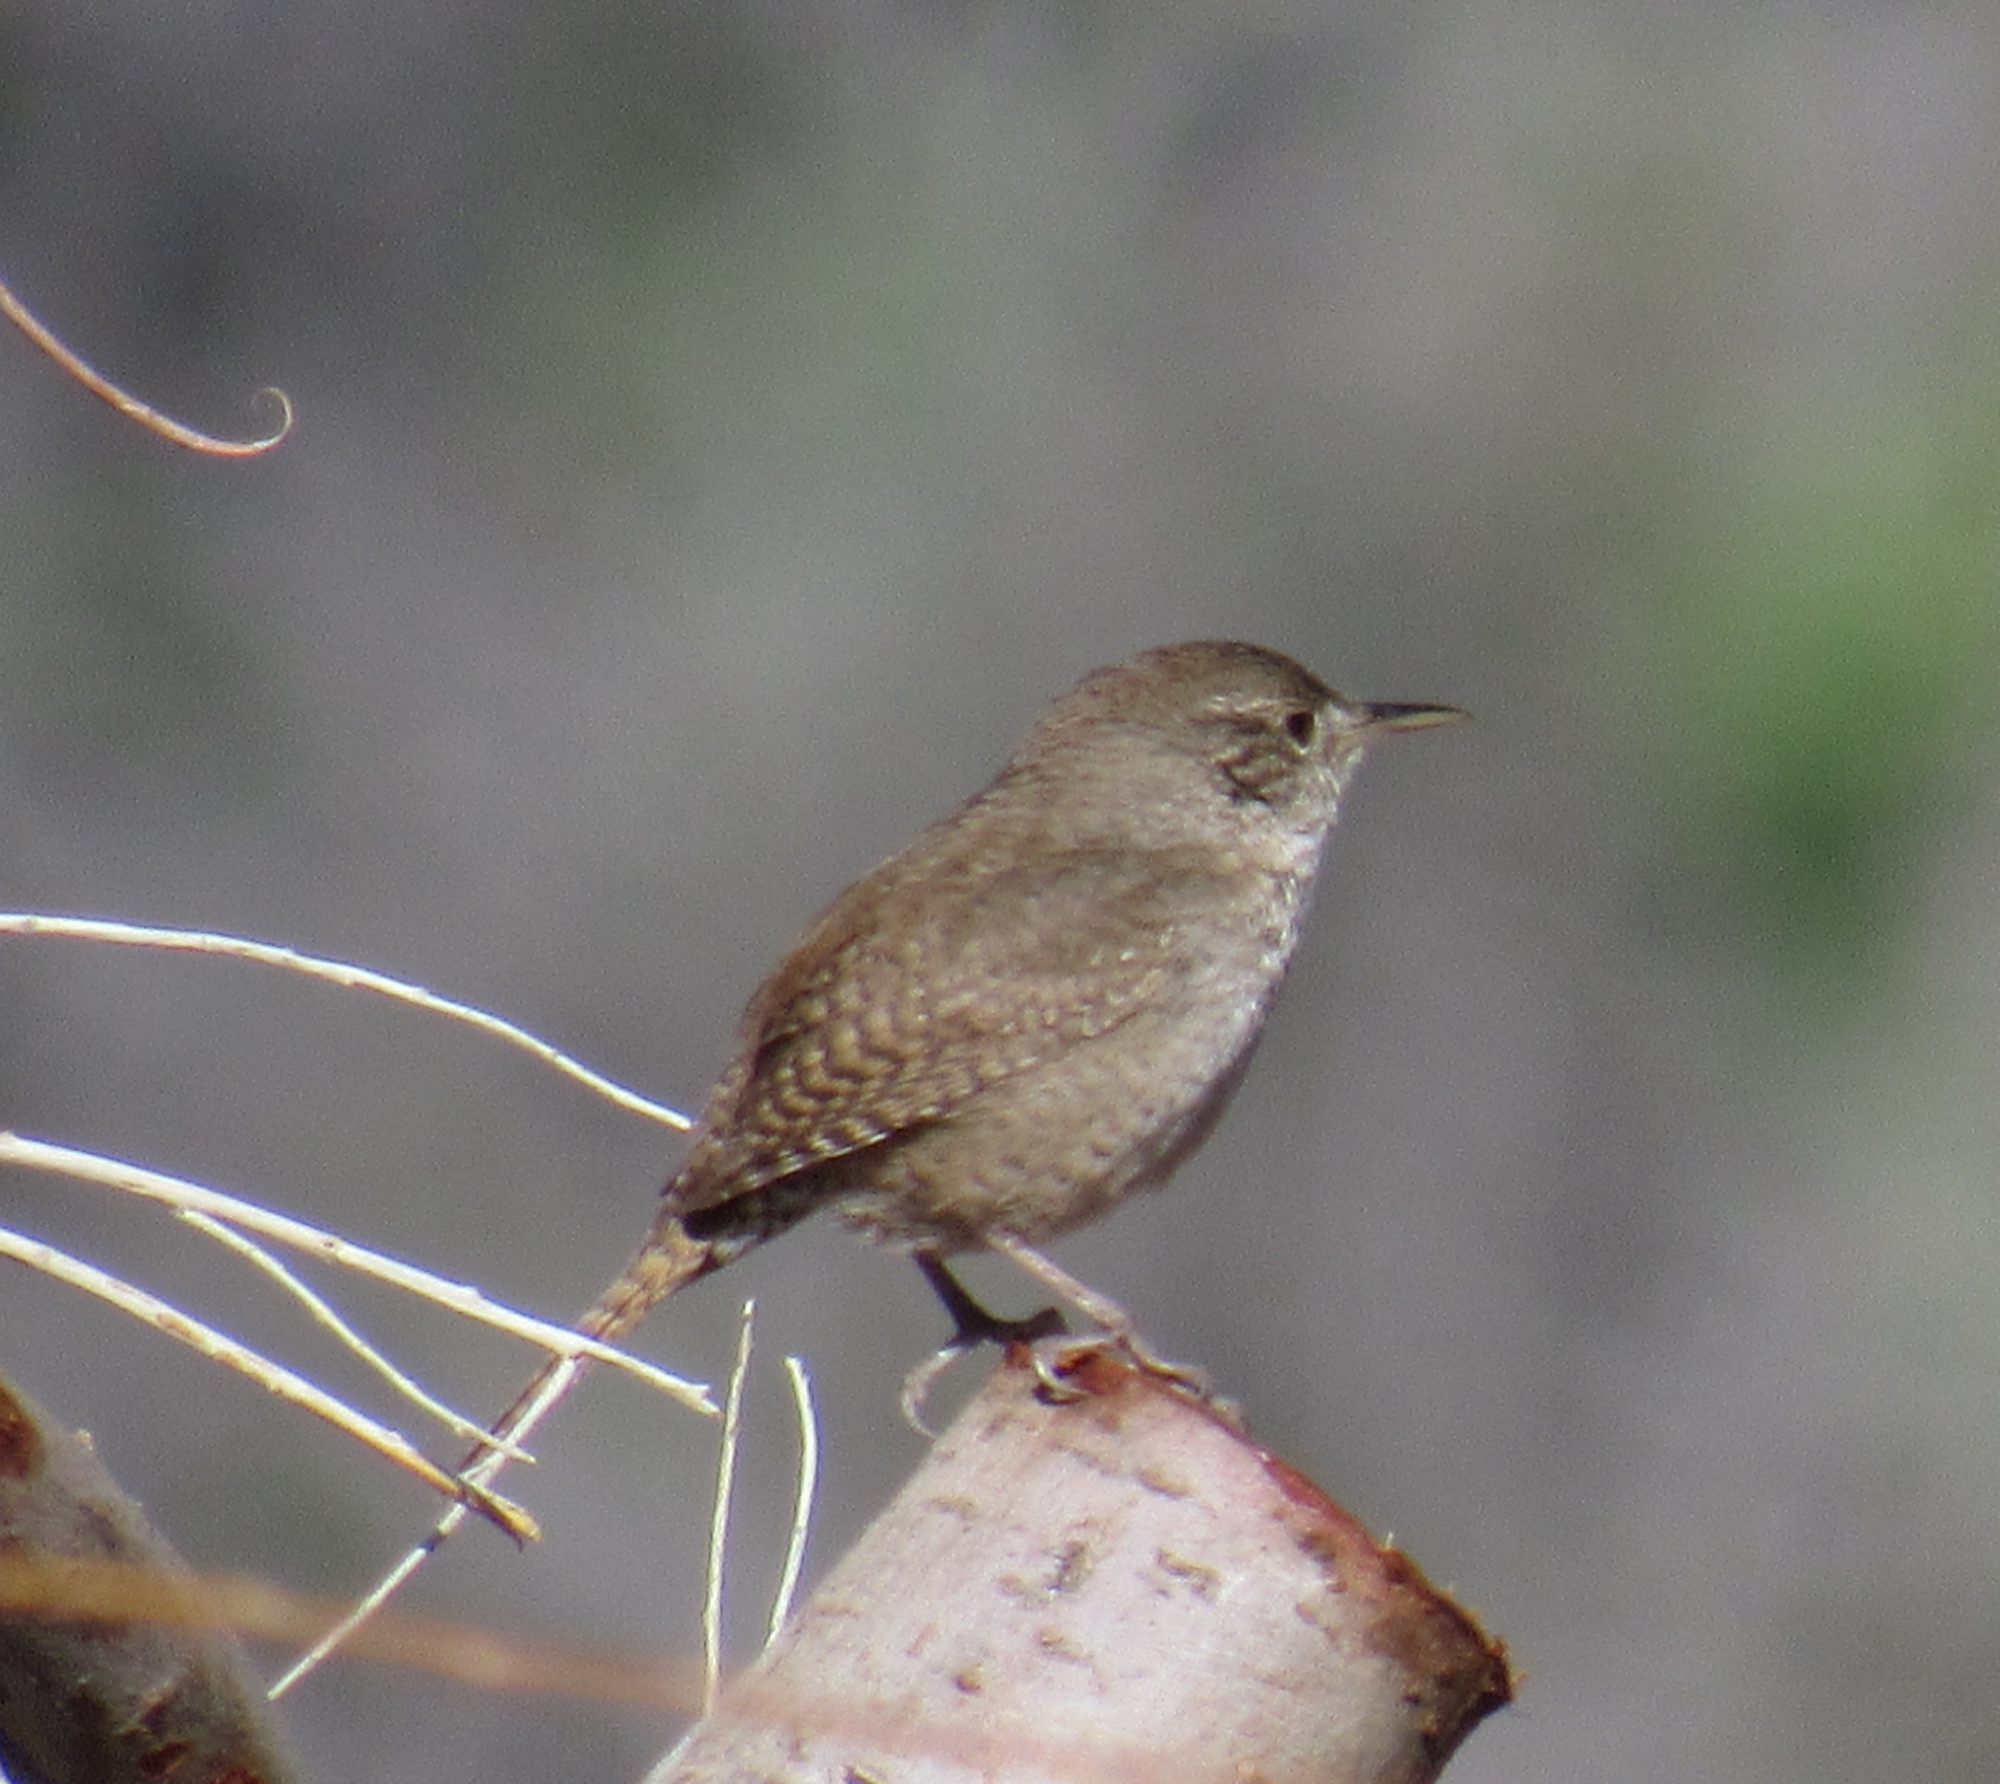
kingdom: Animalia
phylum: Chordata
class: Aves
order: Passeriformes
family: Troglodytidae
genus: Troglodytes
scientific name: Troglodytes aedon
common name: House wren
